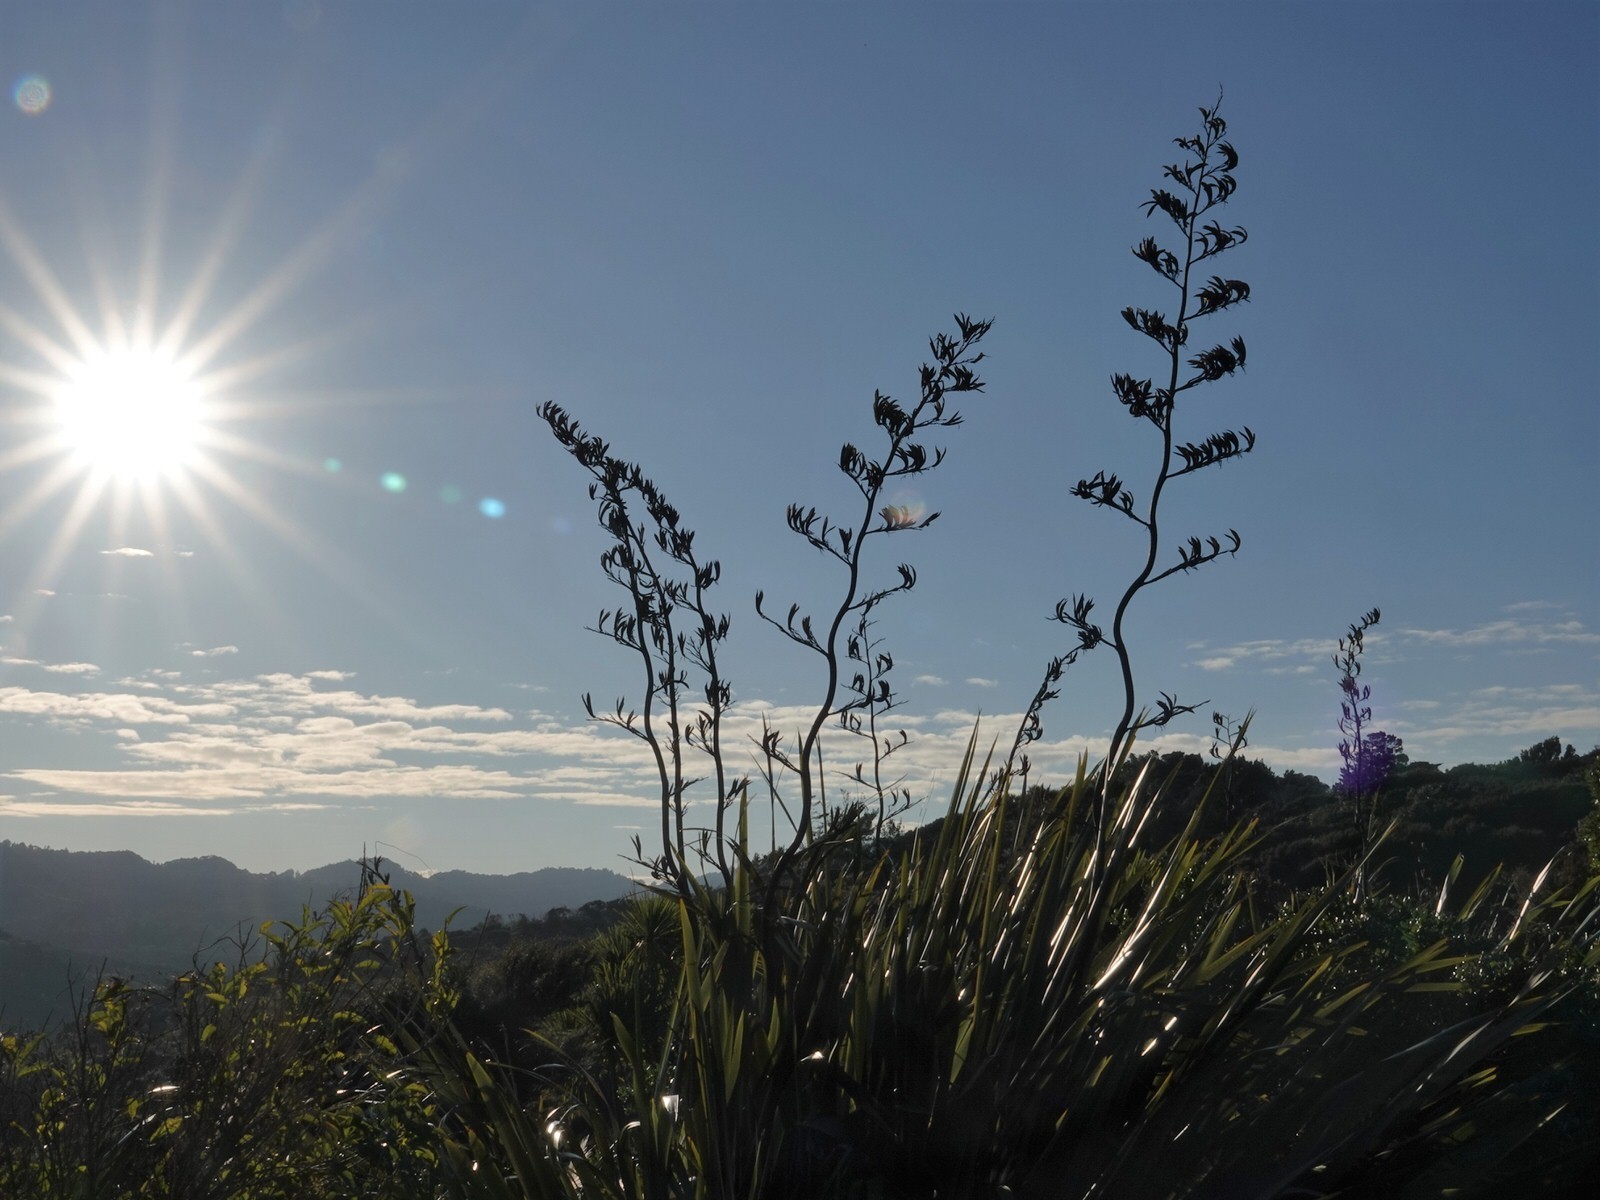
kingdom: Plantae
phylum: Tracheophyta
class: Liliopsida
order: Asparagales
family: Asphodelaceae
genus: Phormium
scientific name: Phormium tenax
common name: New zealand flax
